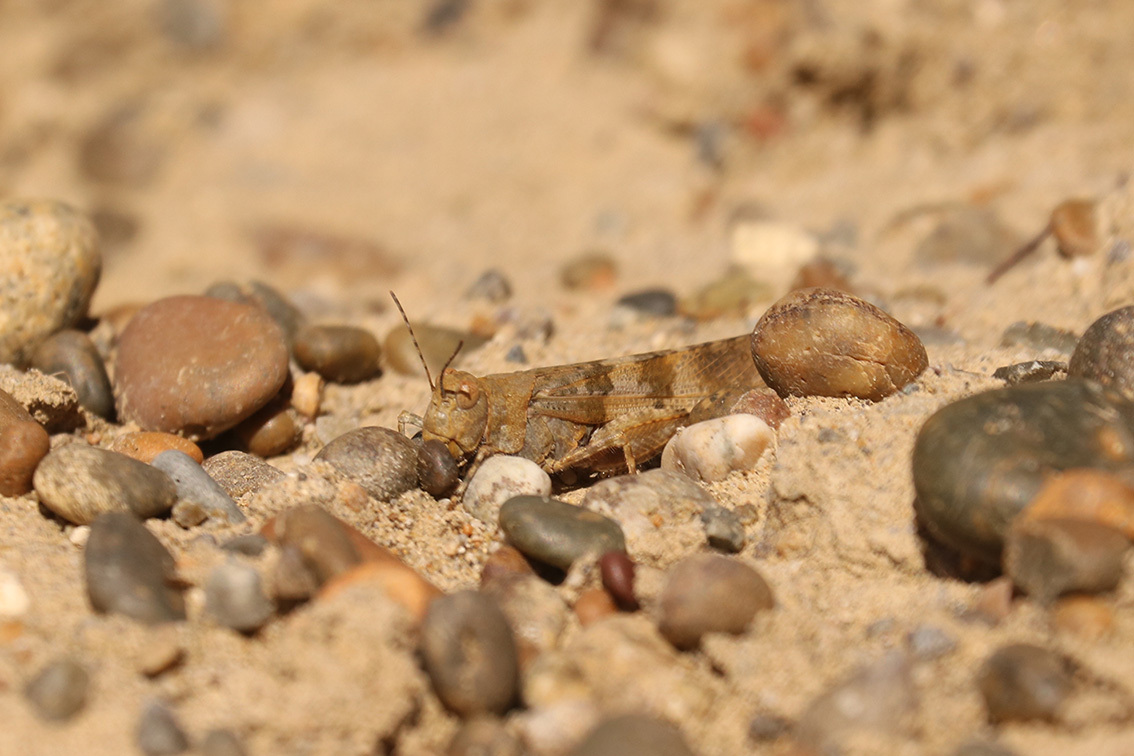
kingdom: Animalia
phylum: Arthropoda
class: Insecta
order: Orthoptera
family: Acrididae
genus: Trimerotropis
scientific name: Trimerotropis pallidipennis
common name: Pallid-winged grasshopper
